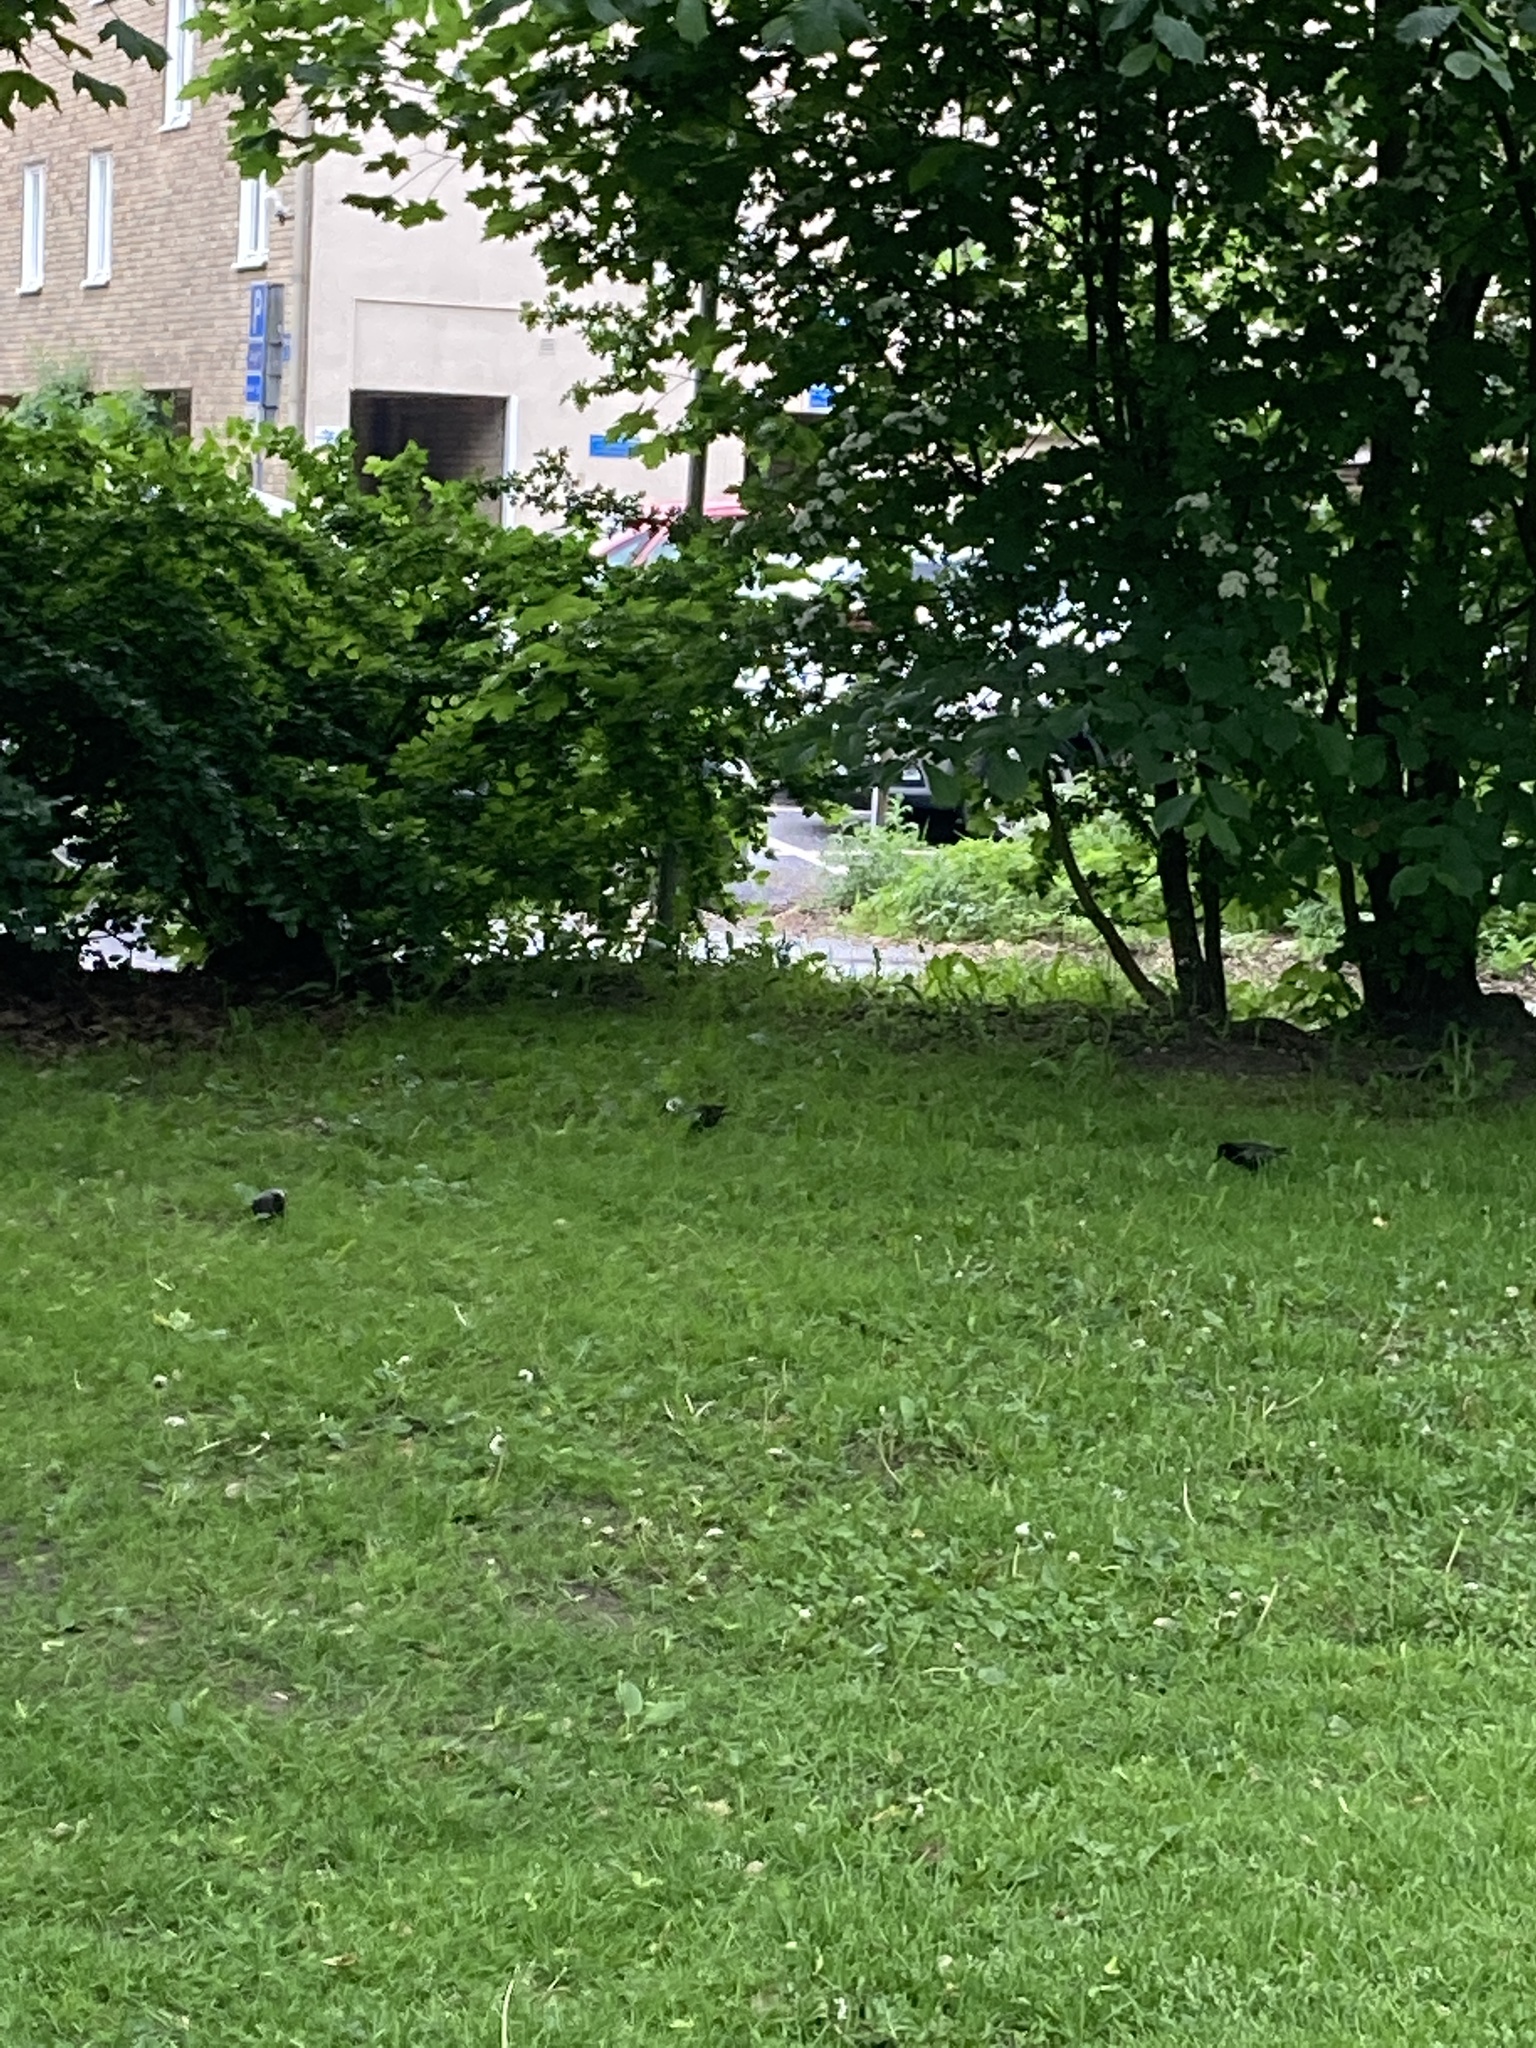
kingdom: Animalia
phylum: Chordata
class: Aves
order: Passeriformes
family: Sturnidae
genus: Sturnus
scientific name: Sturnus vulgaris
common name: Common starling
